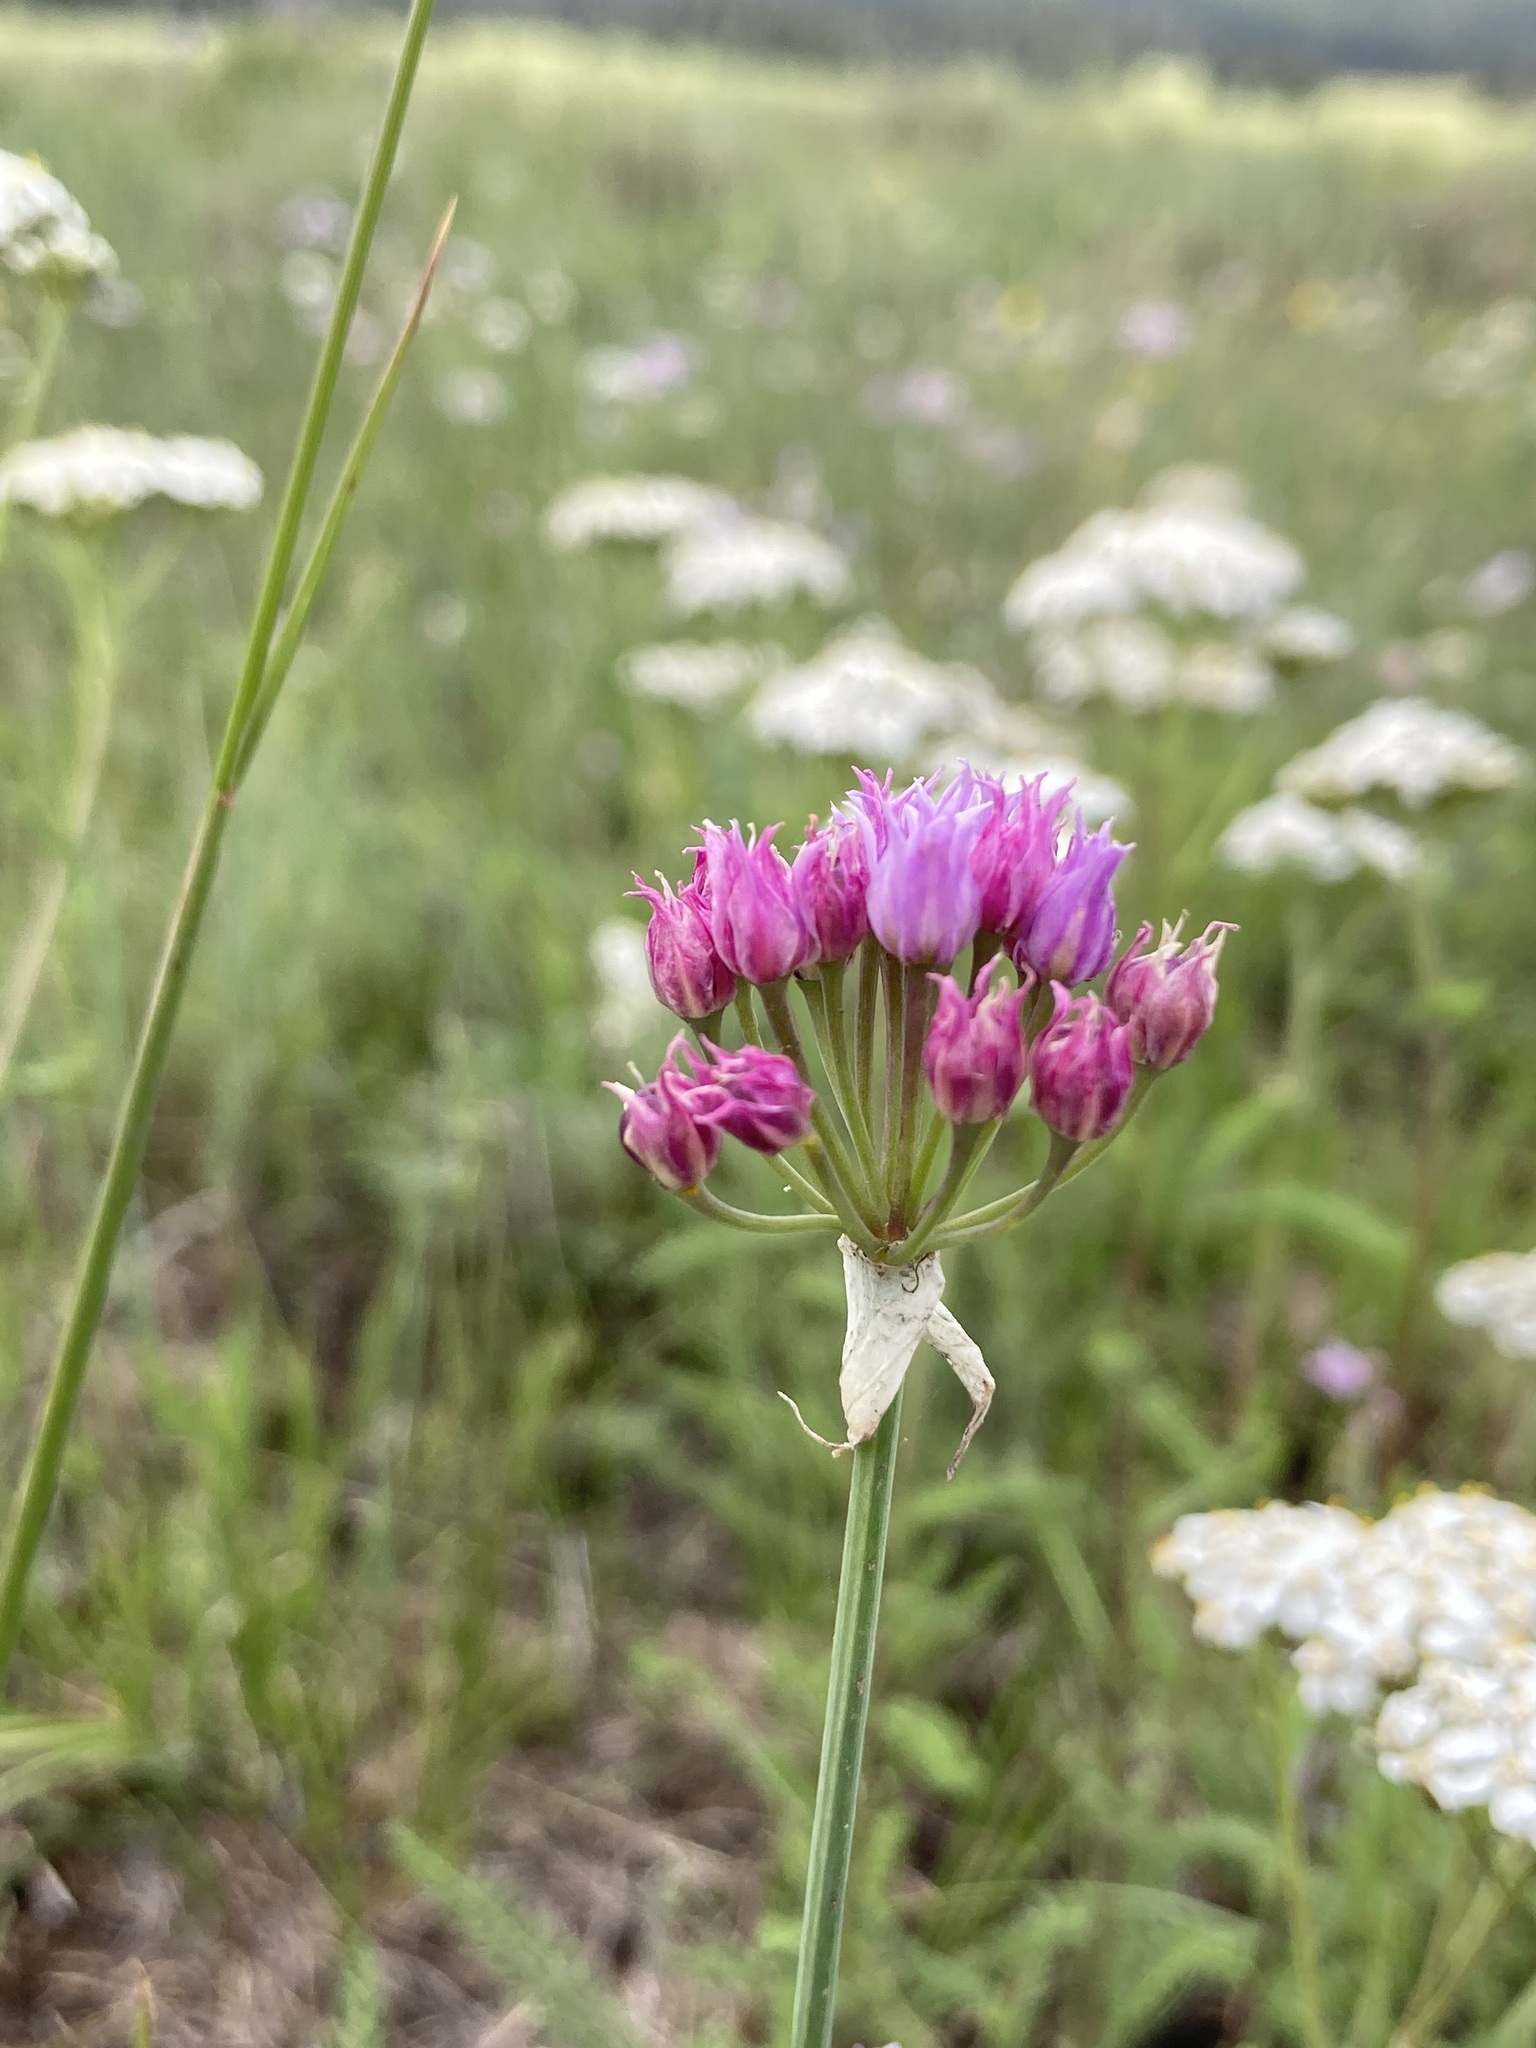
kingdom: Plantae
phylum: Tracheophyta
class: Liliopsida
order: Asparagales
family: Amaryllidaceae
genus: Allium
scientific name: Allium geyeri
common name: Geyer's onion
